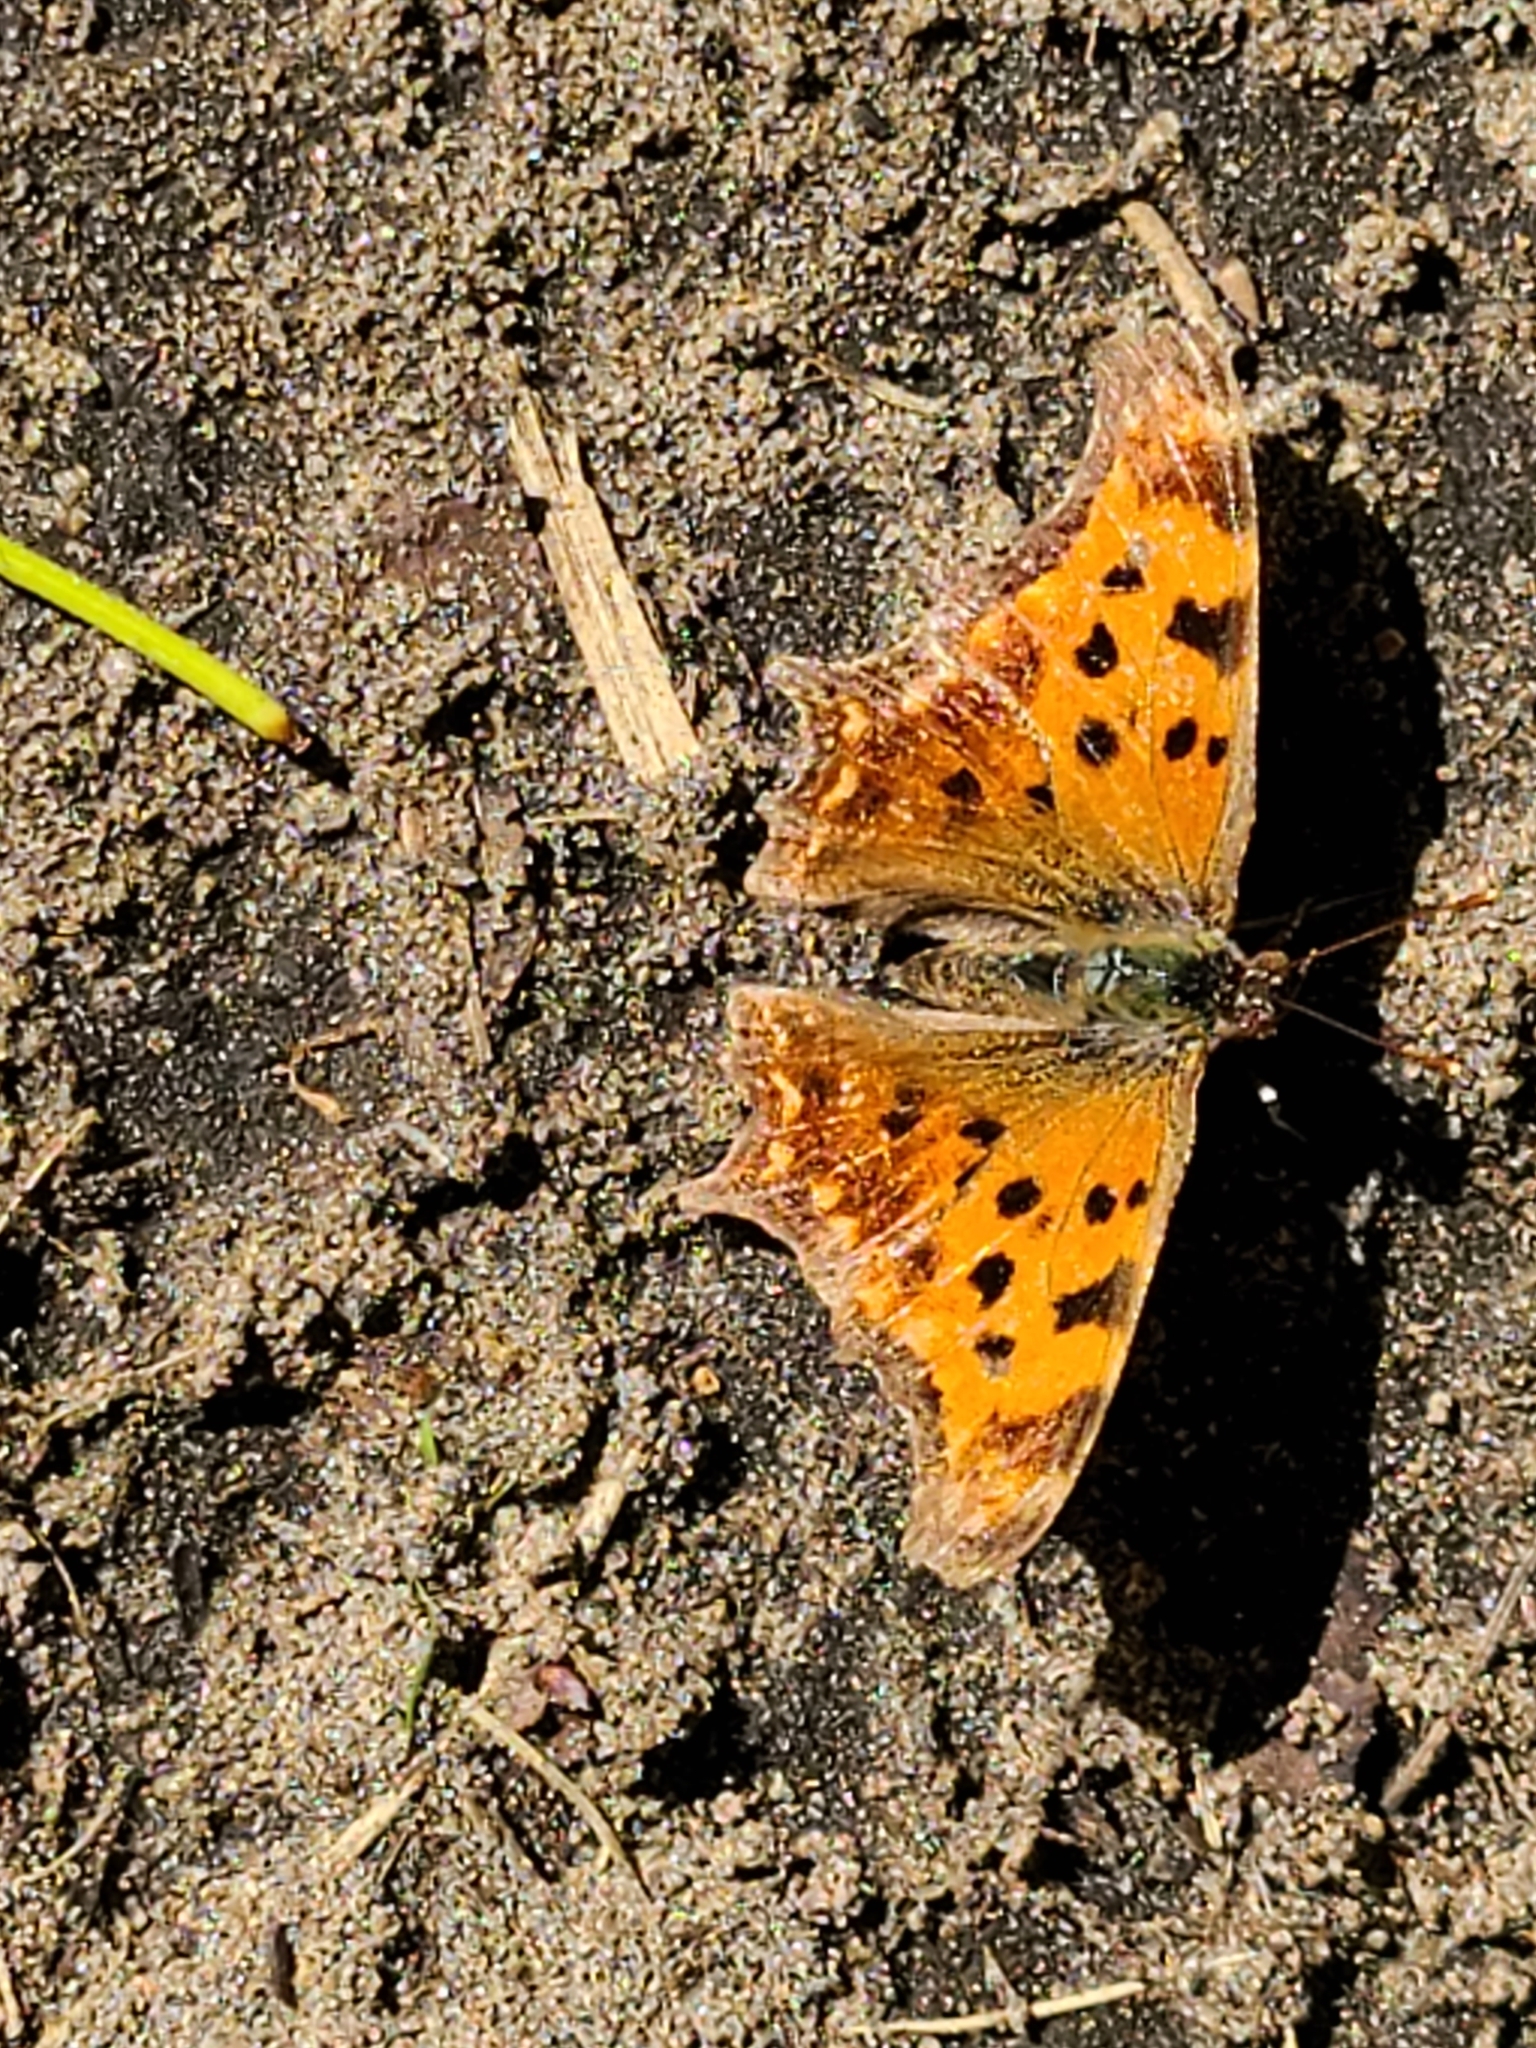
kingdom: Animalia
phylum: Arthropoda
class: Insecta
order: Lepidoptera
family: Nymphalidae
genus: Polygonia
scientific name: Polygonia comma
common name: Eastern comma
